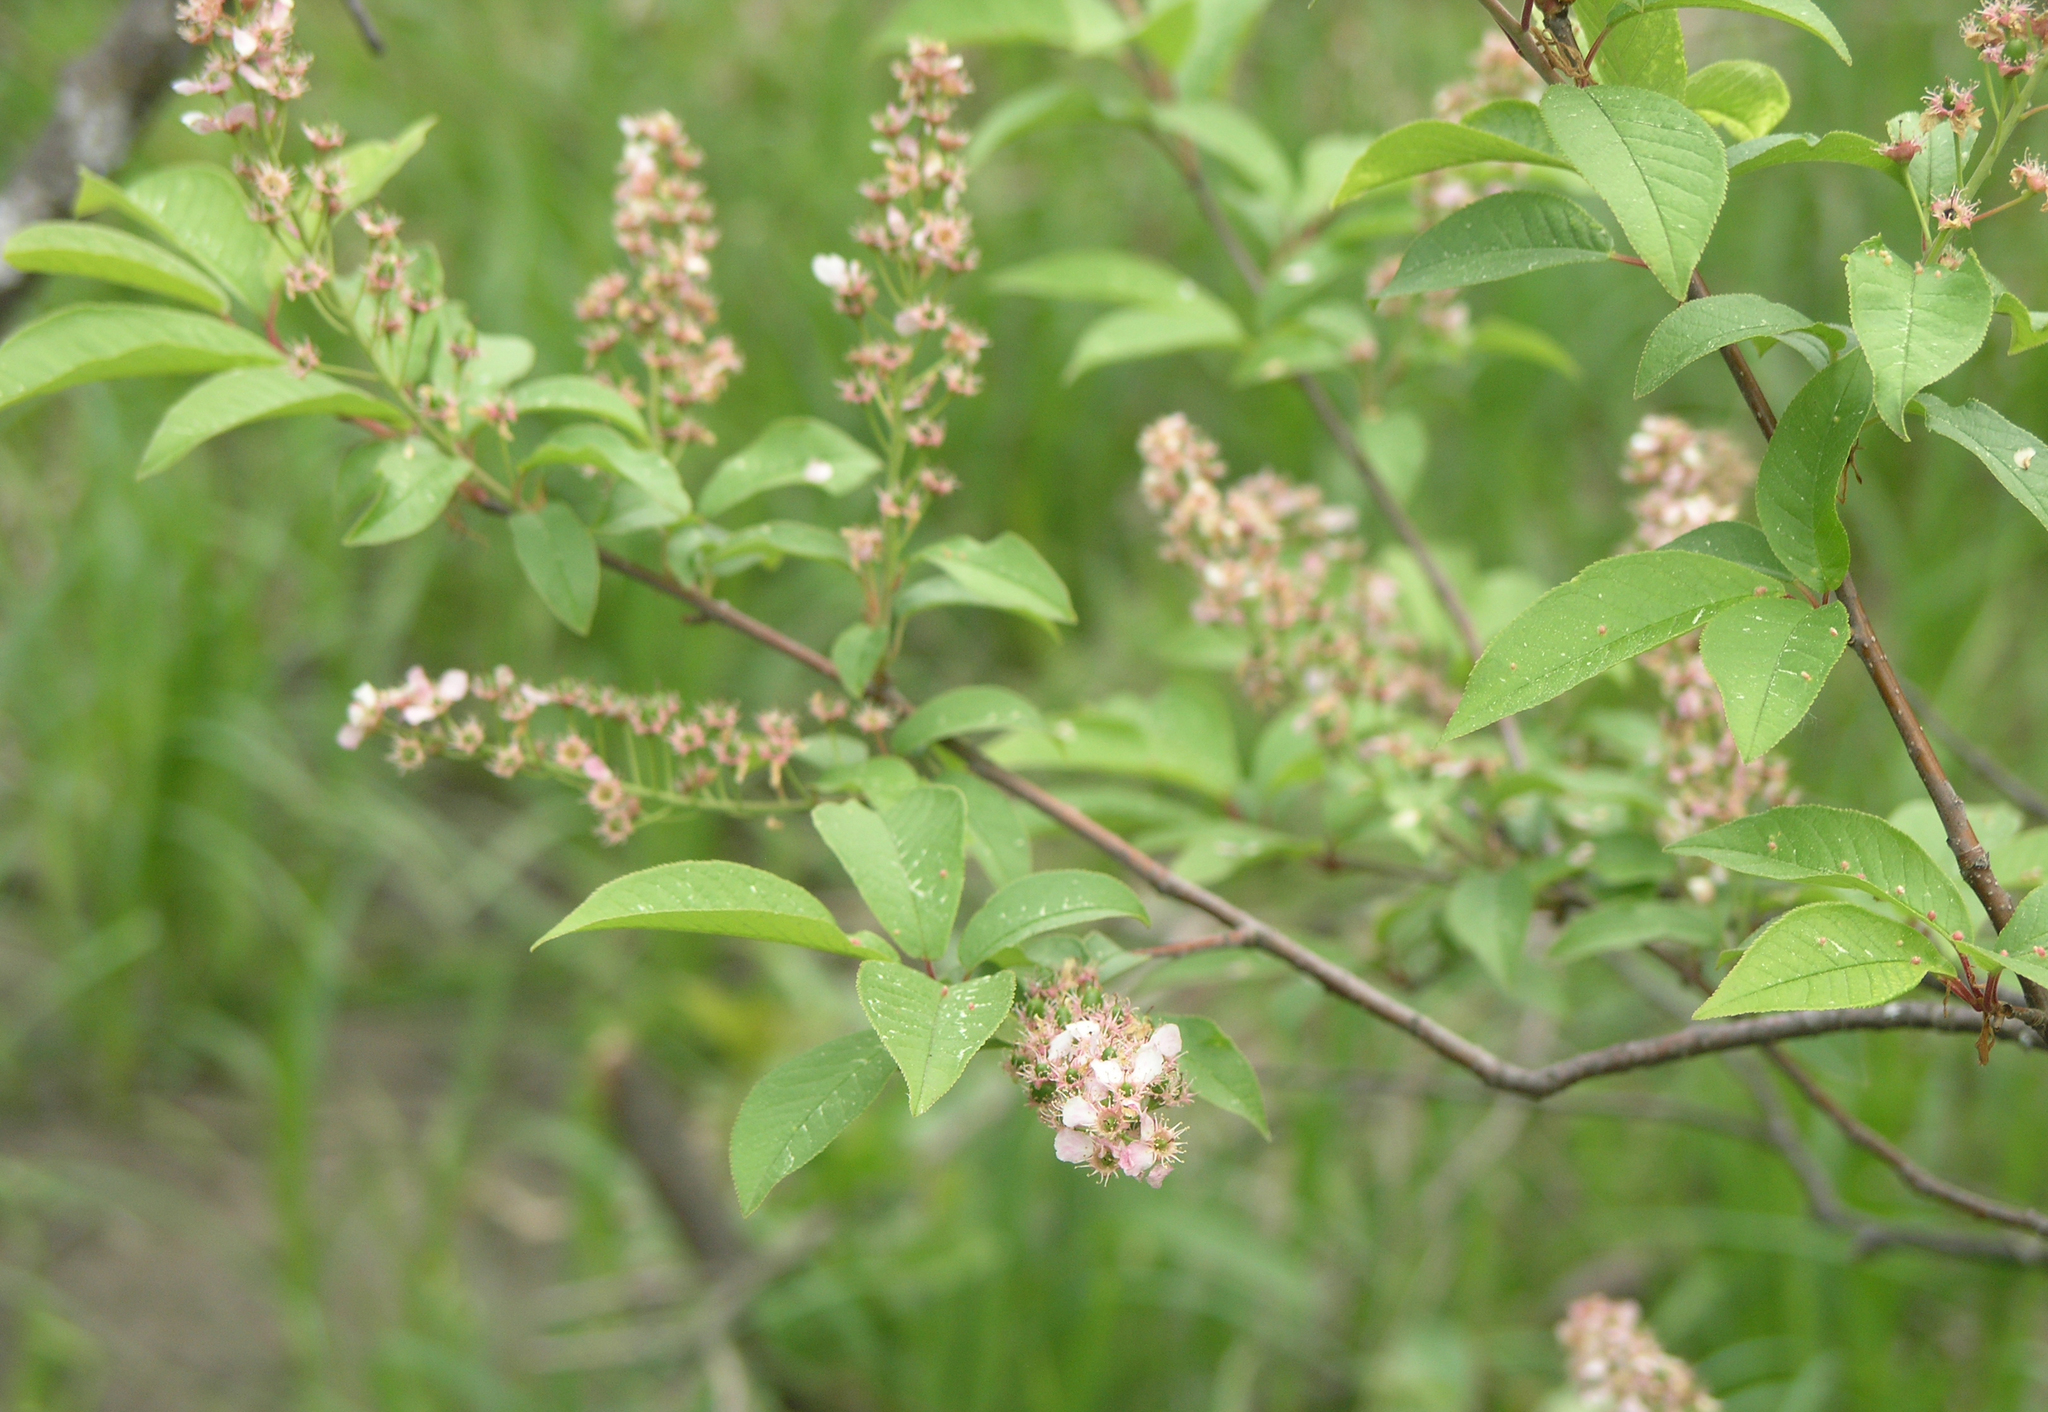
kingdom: Plantae
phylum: Tracheophyta
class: Magnoliopsida
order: Rosales
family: Rosaceae
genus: Prunus
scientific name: Prunus padus
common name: Bird cherry
